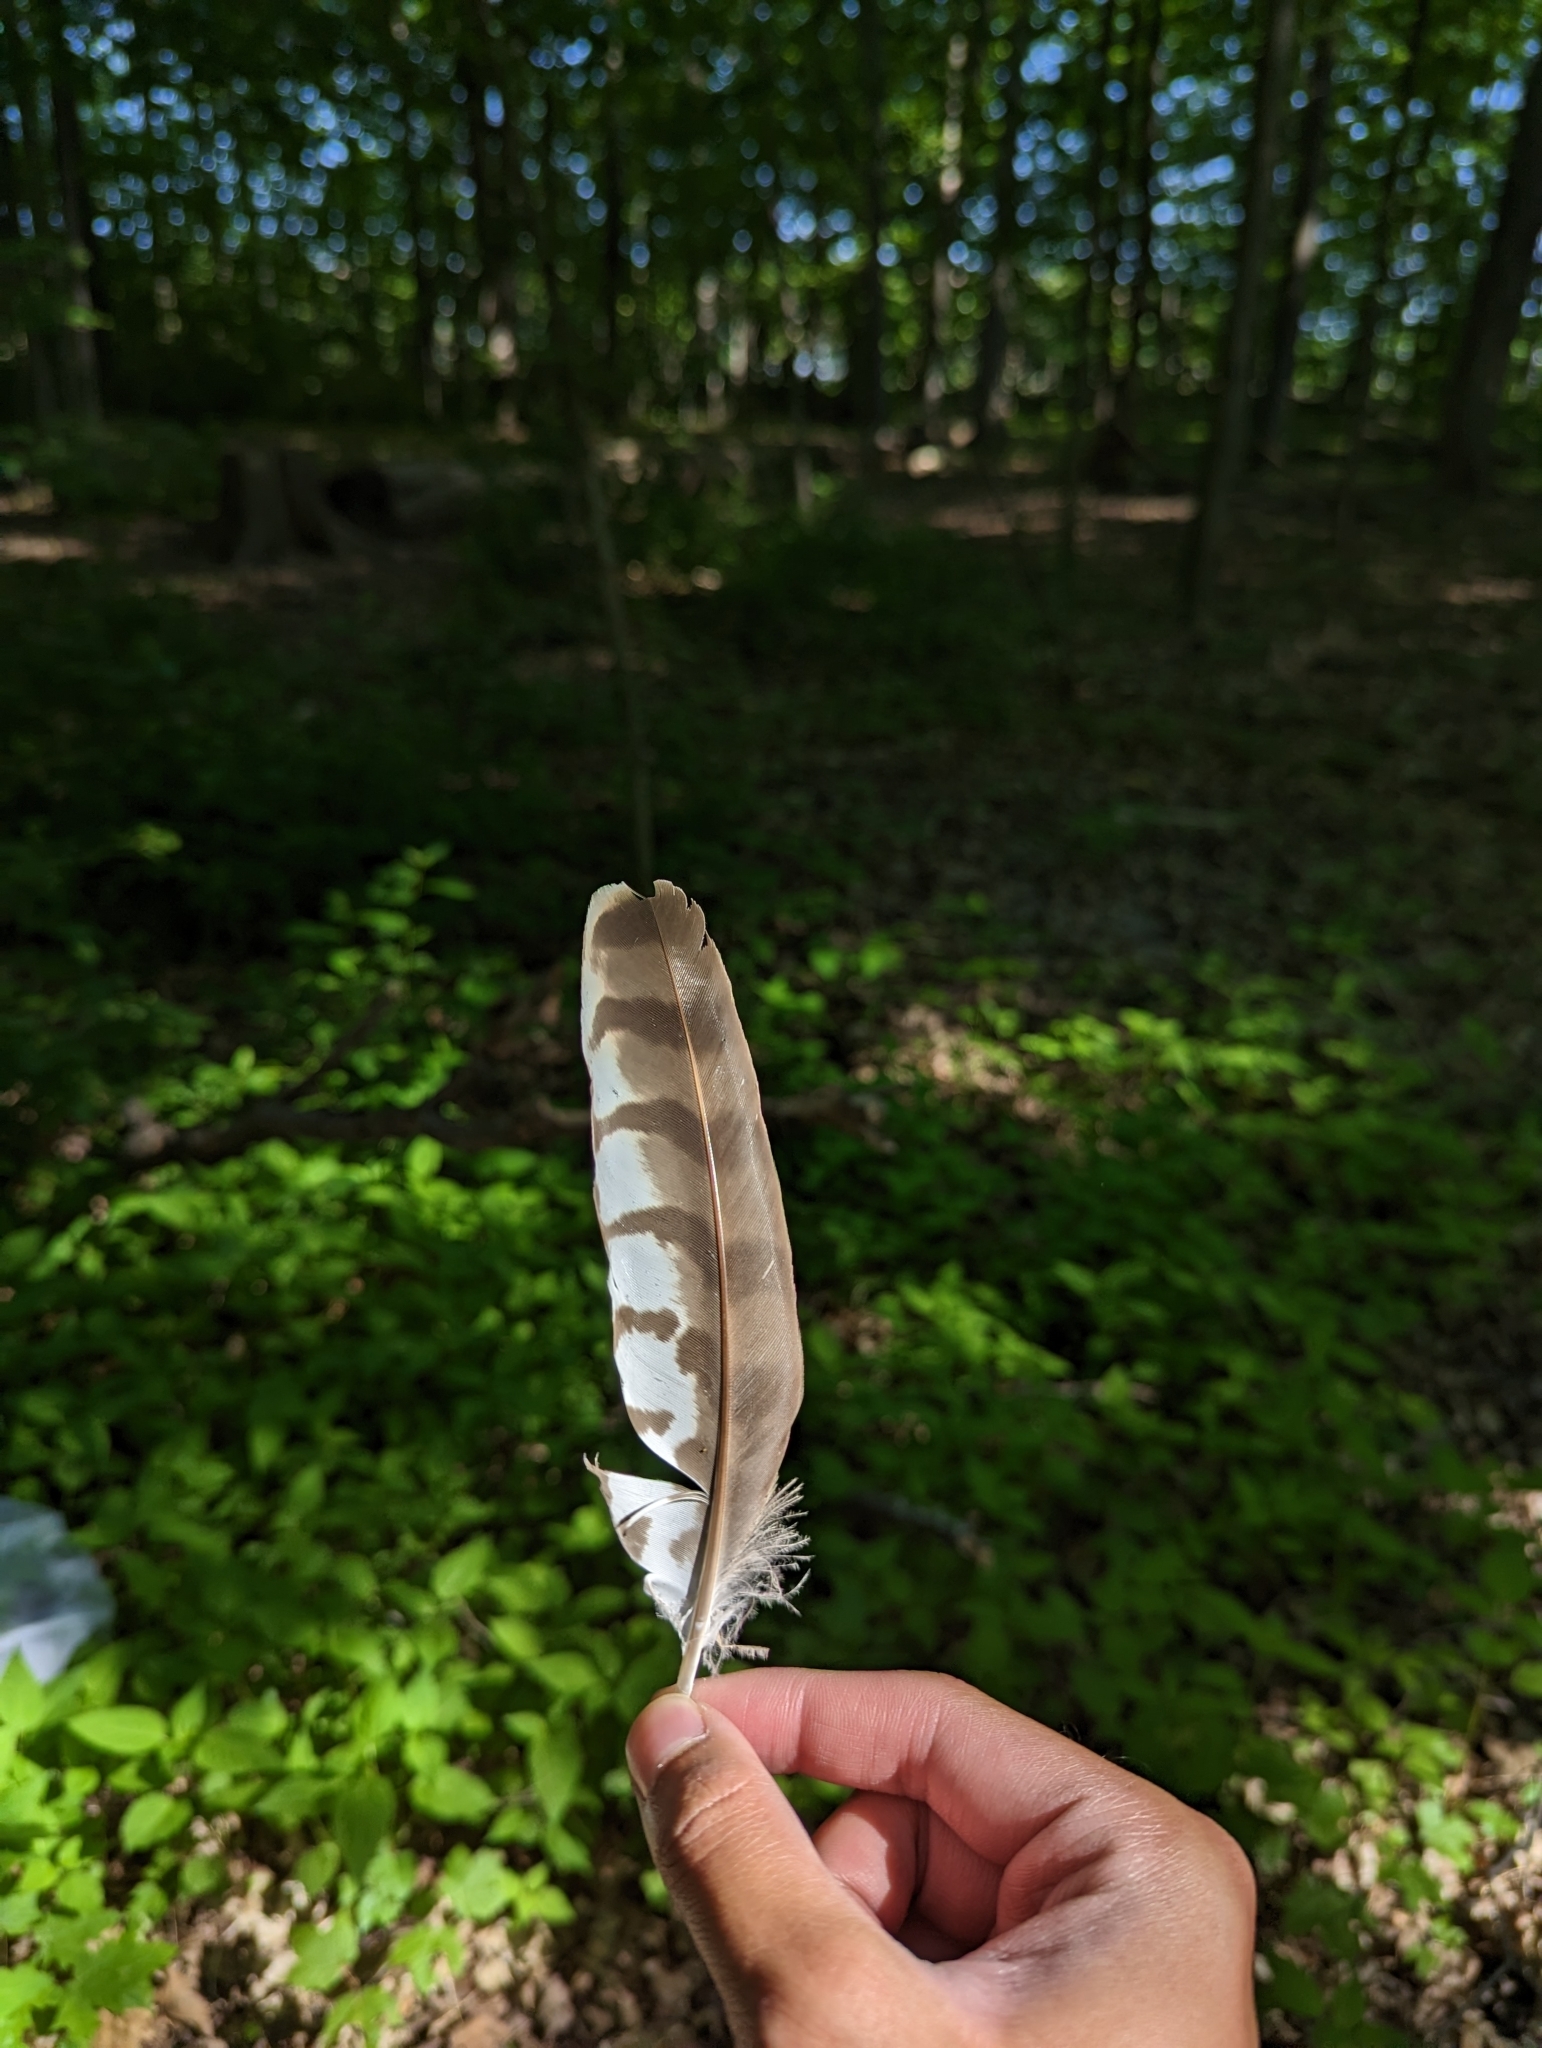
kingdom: Animalia
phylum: Chordata
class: Aves
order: Accipitriformes
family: Accipitridae
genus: Accipiter
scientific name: Accipiter cooperii
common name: Cooper's hawk
